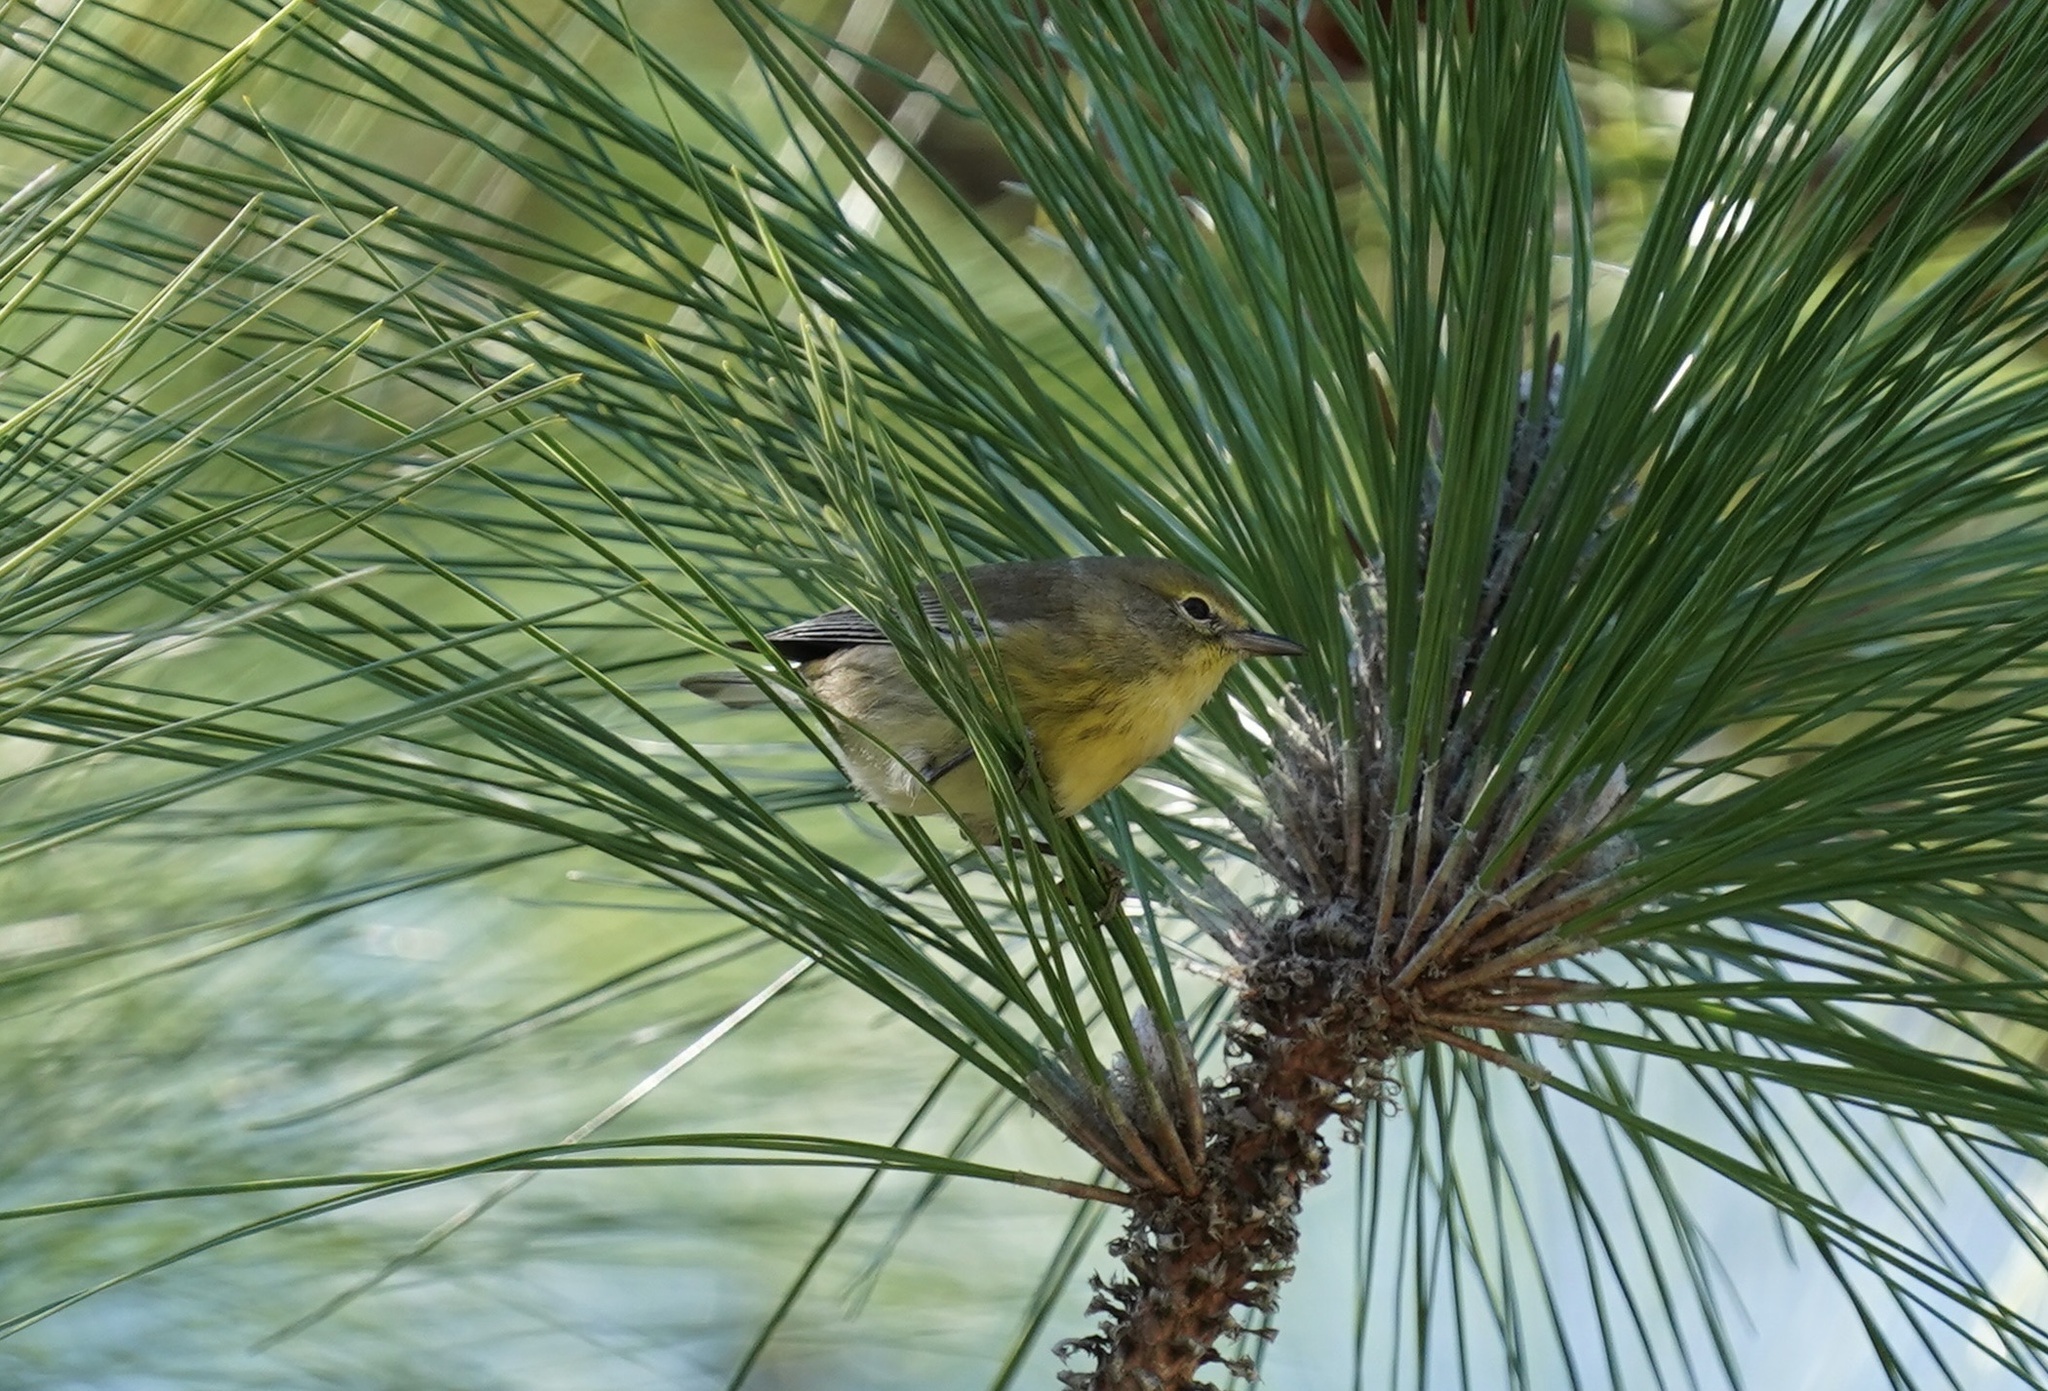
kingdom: Animalia
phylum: Chordata
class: Aves
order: Passeriformes
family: Parulidae
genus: Setophaga
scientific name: Setophaga pinus
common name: Pine warbler
